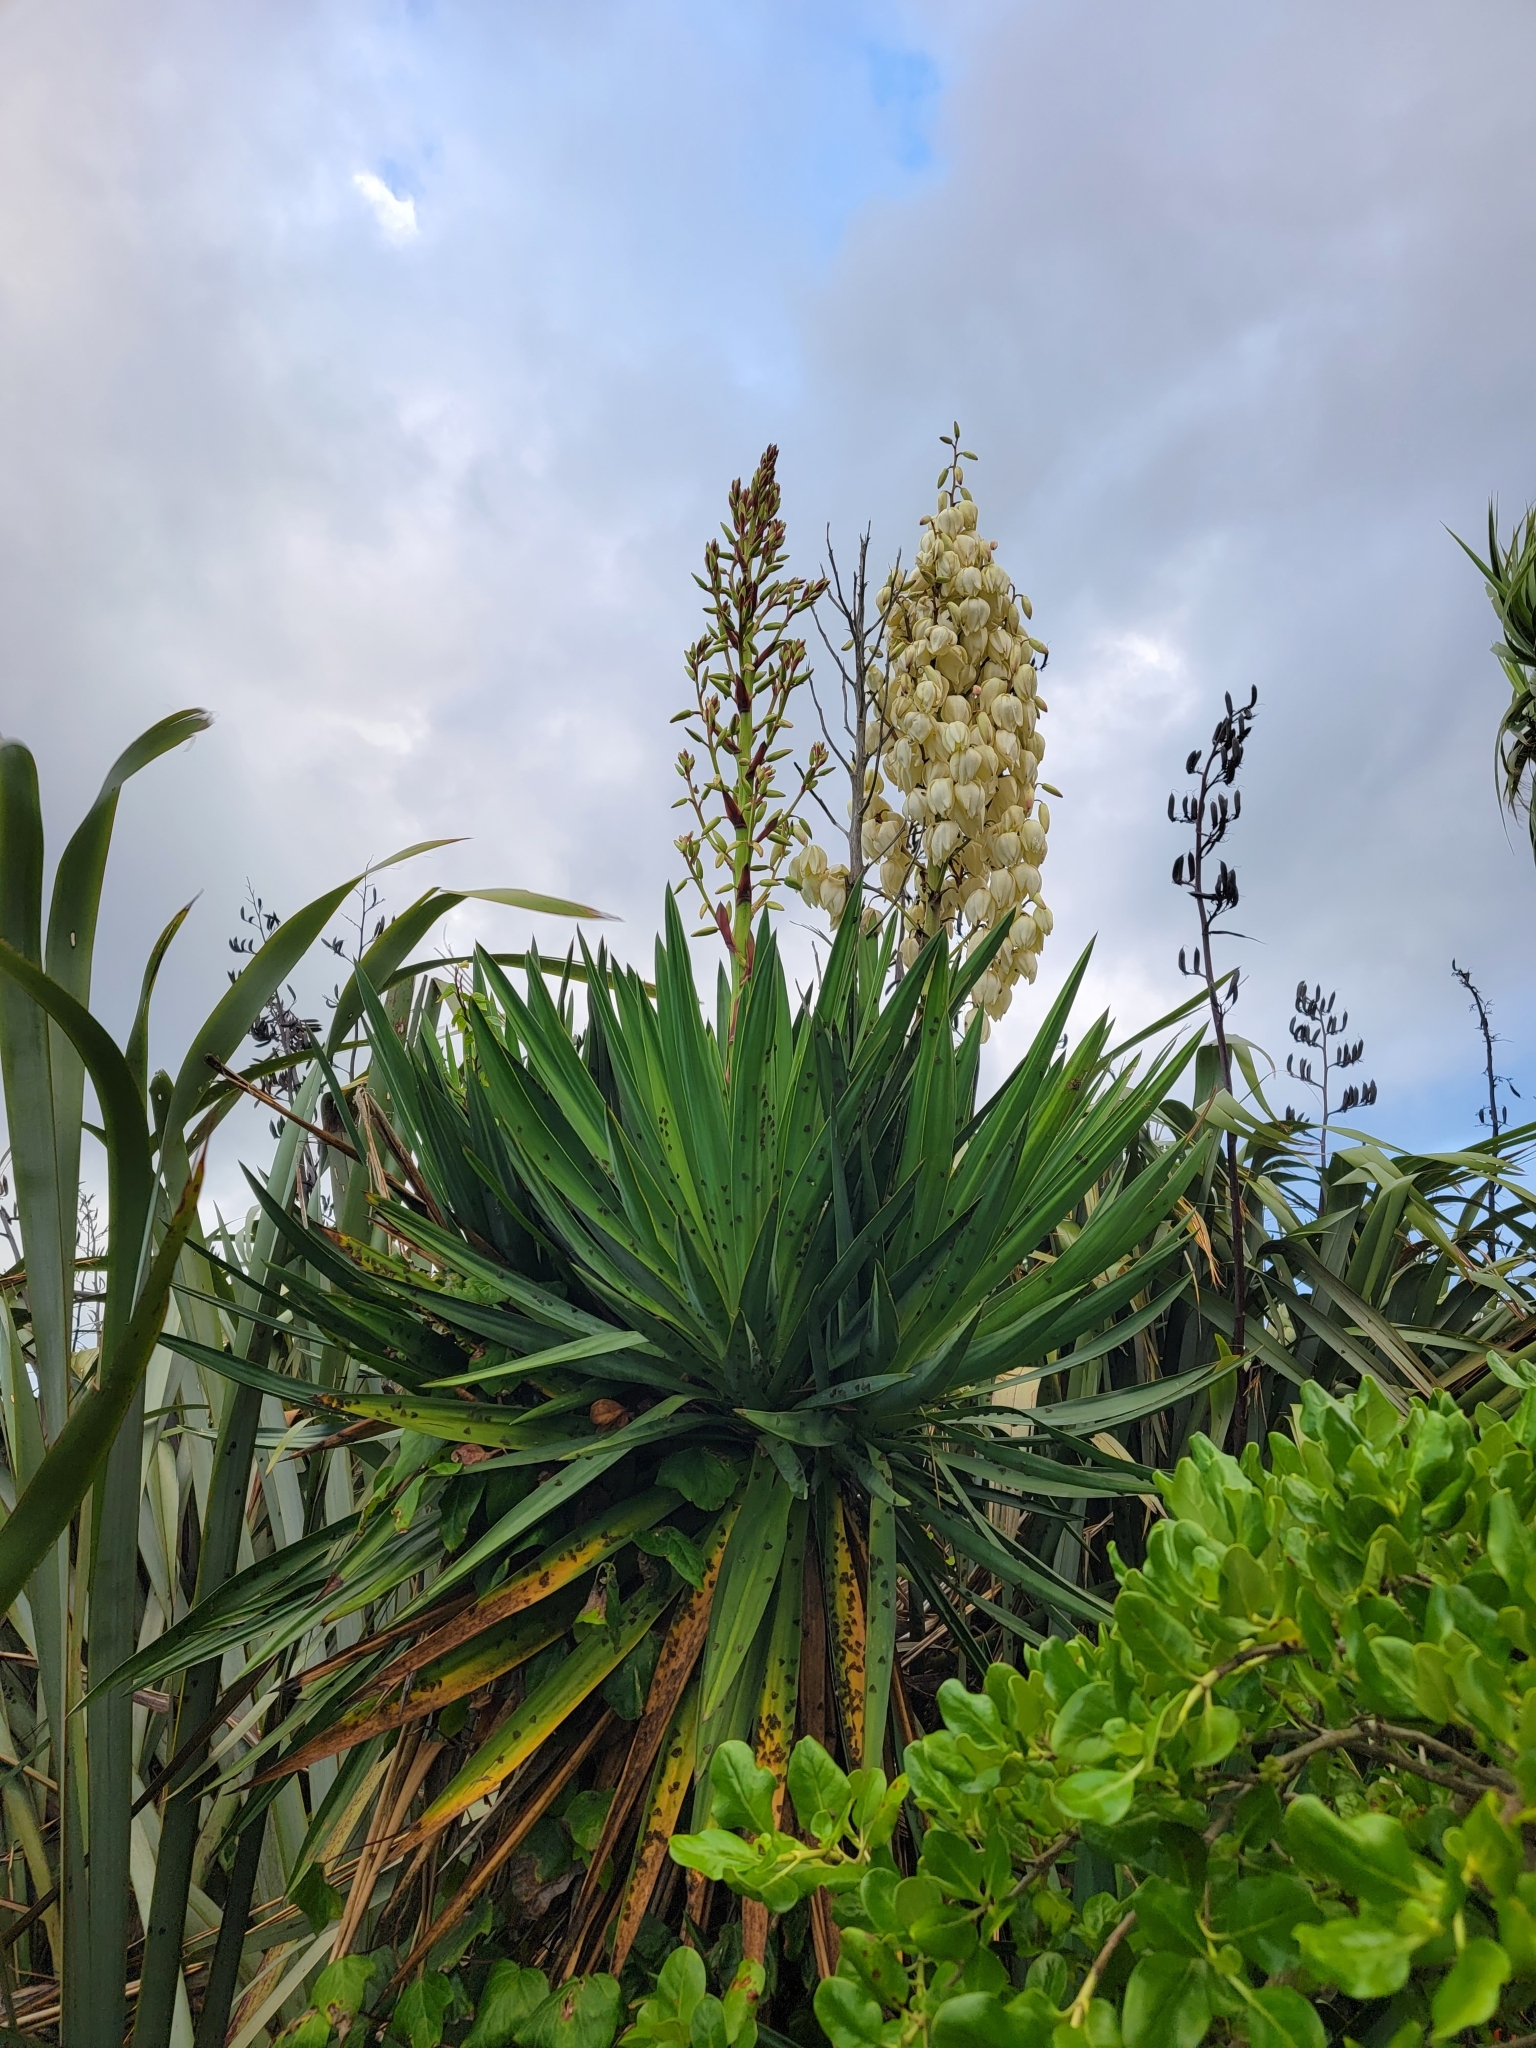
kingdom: Plantae
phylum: Tracheophyta
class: Liliopsida
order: Asparagales
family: Asparagaceae
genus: Yucca
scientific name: Yucca gloriosa
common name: Spanish-dagger
